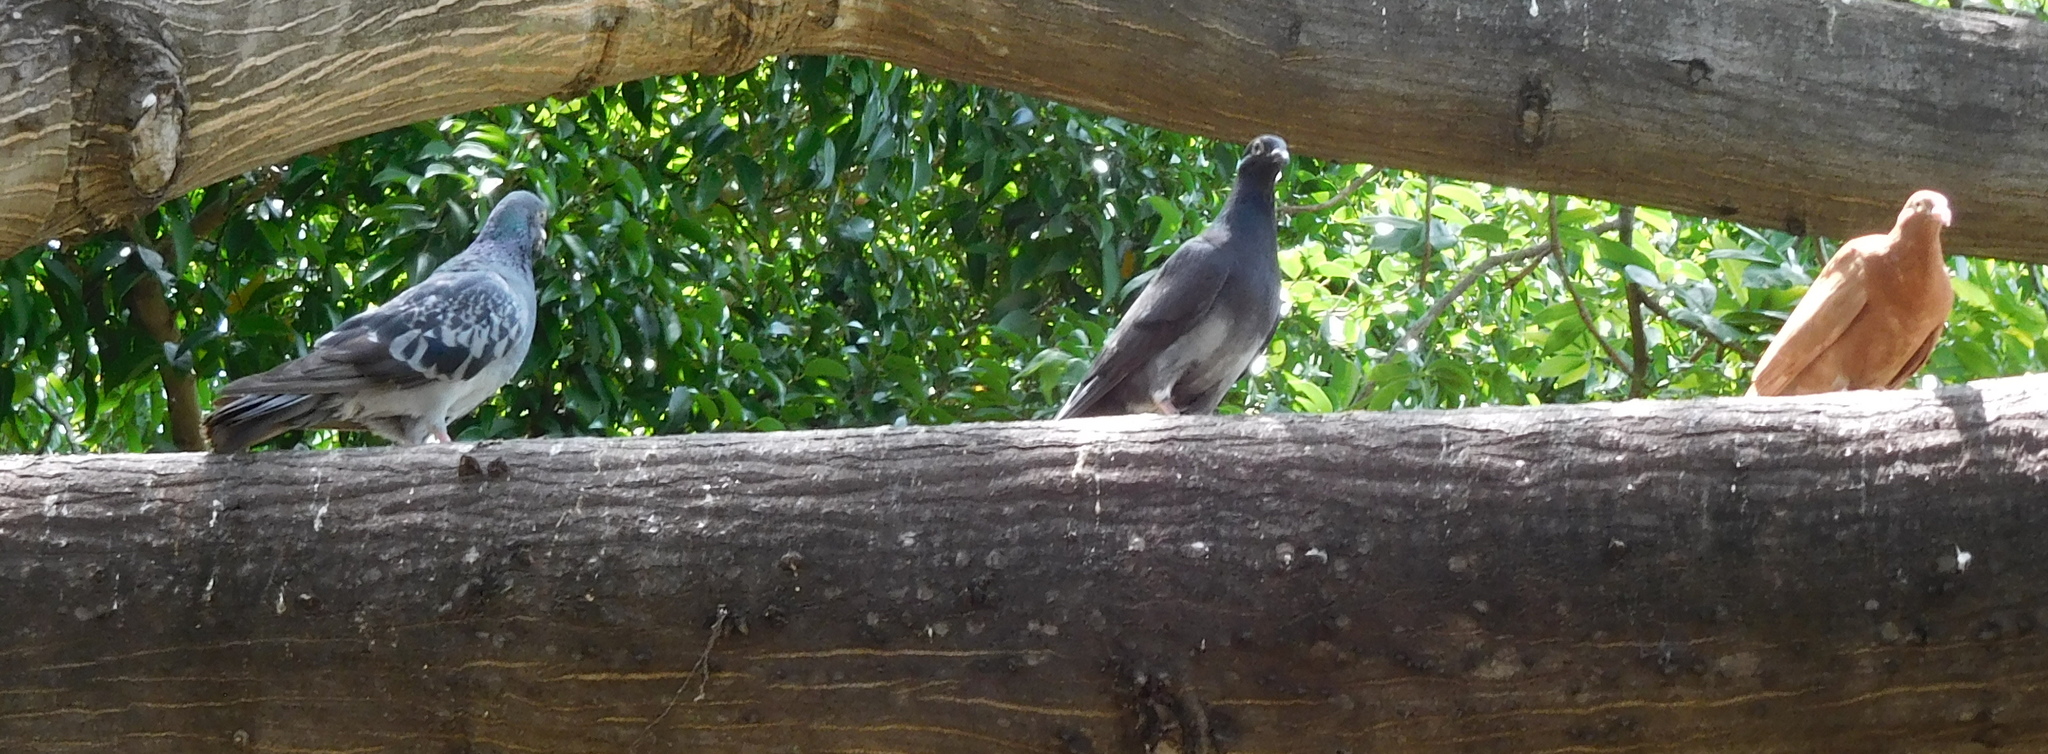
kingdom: Animalia
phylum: Chordata
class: Aves
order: Columbiformes
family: Columbidae
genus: Columba
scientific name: Columba livia
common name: Rock pigeon
